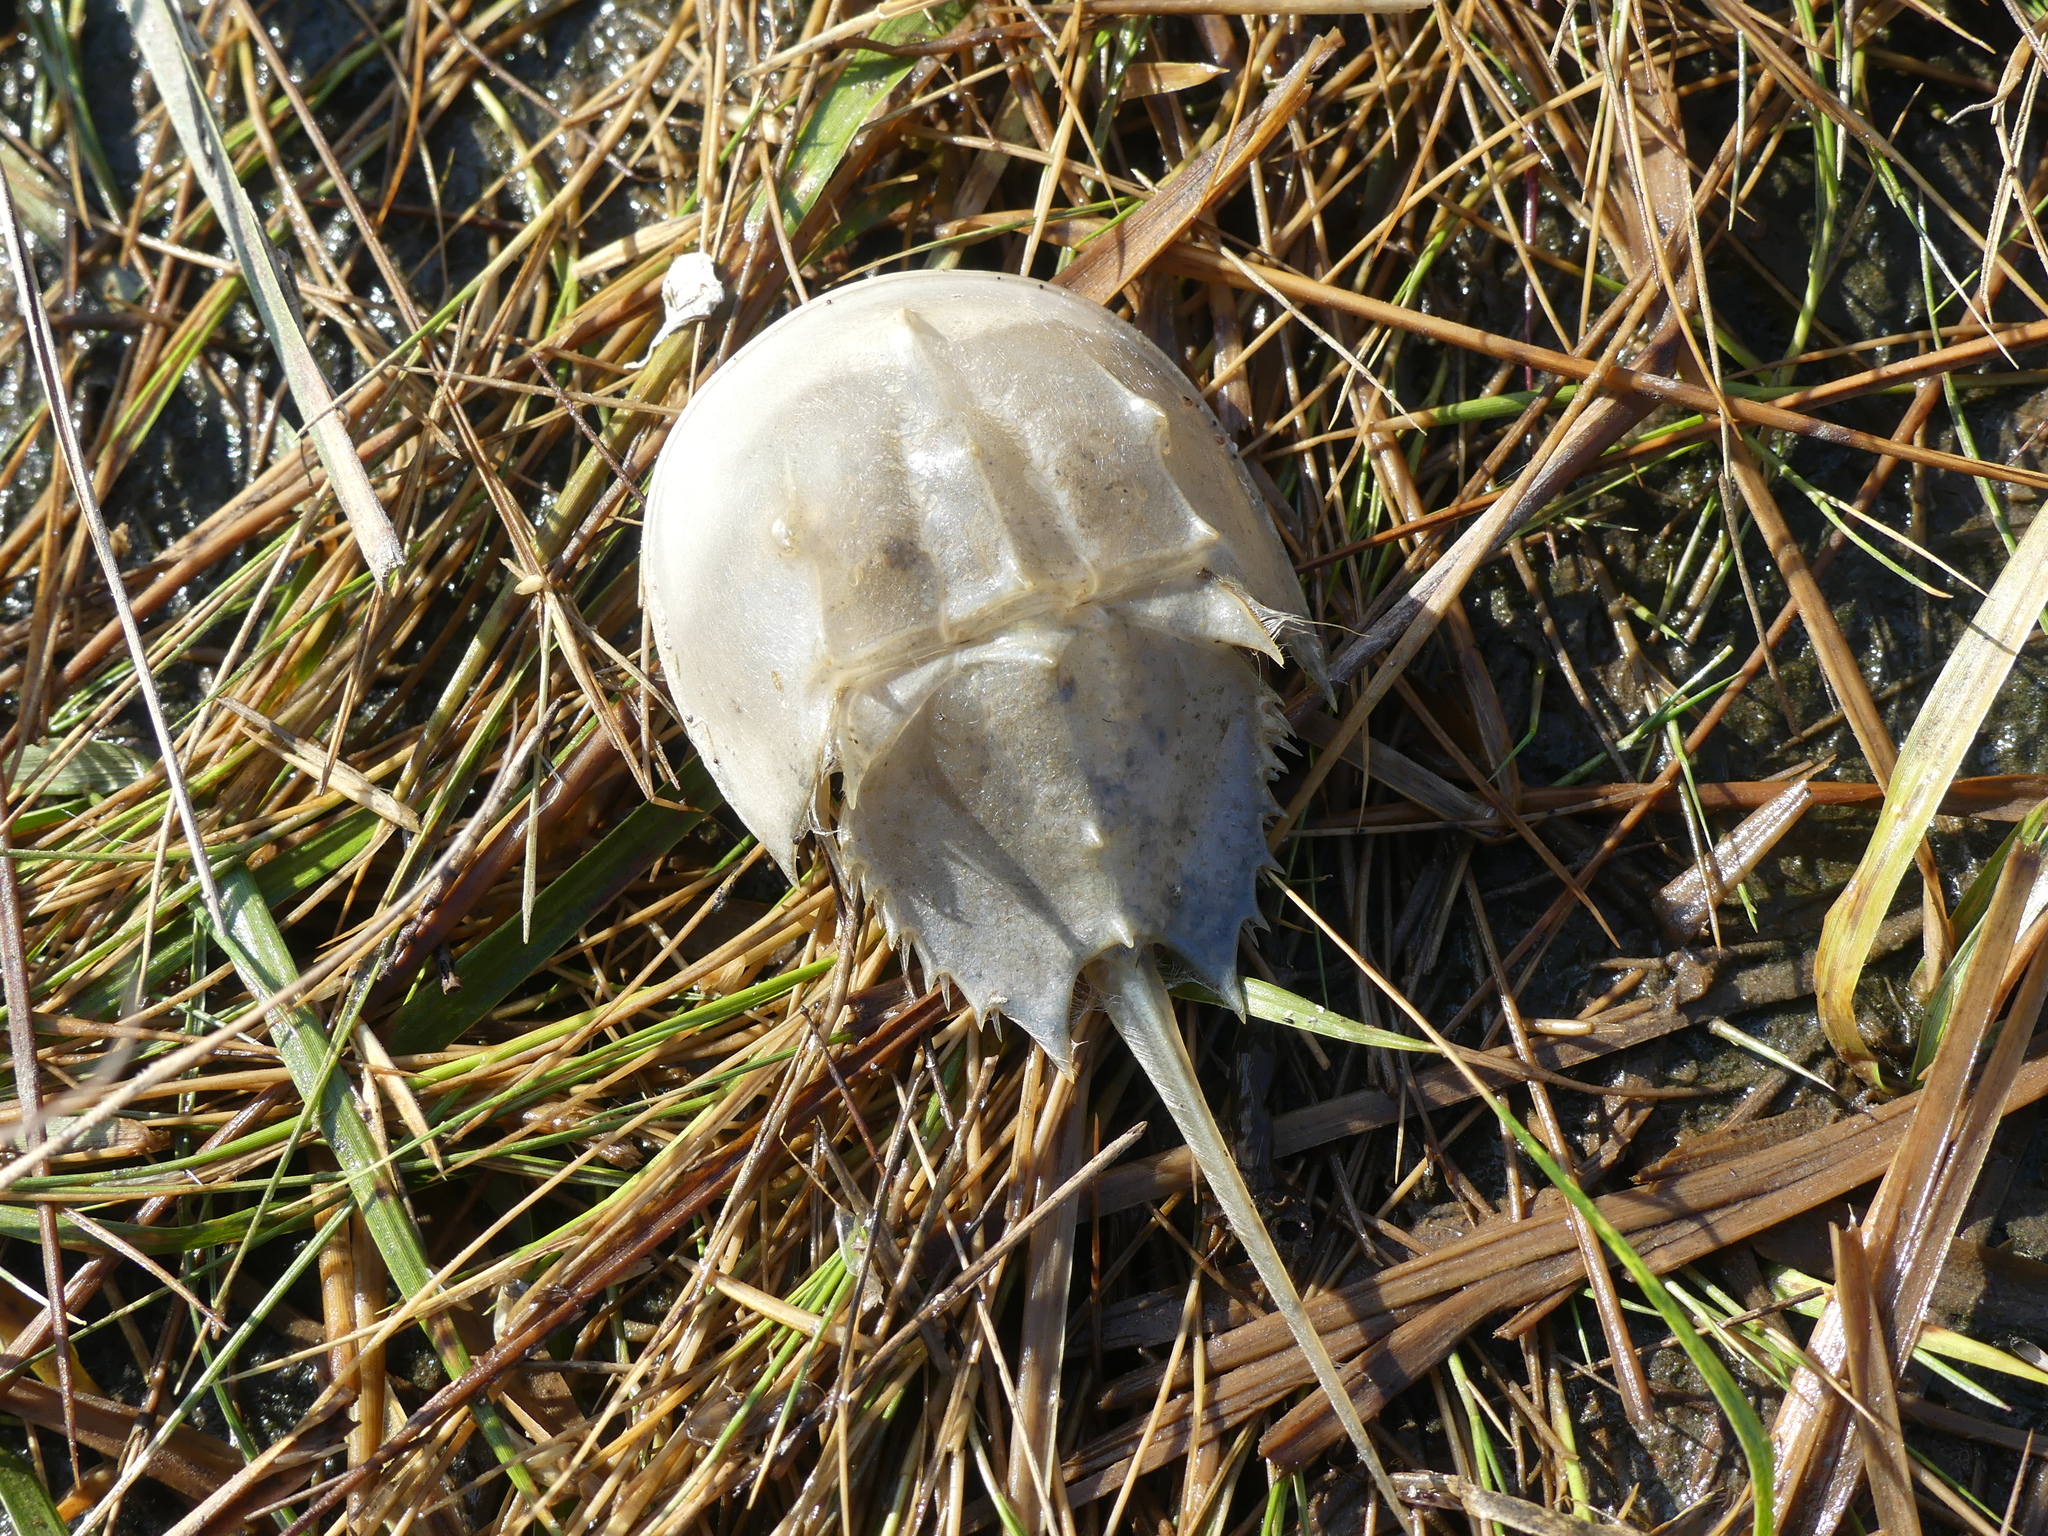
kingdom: Animalia
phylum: Arthropoda
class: Merostomata
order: Xiphosurida
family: Limulidae
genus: Limulus
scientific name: Limulus polyphemus
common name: Horseshoe crab
